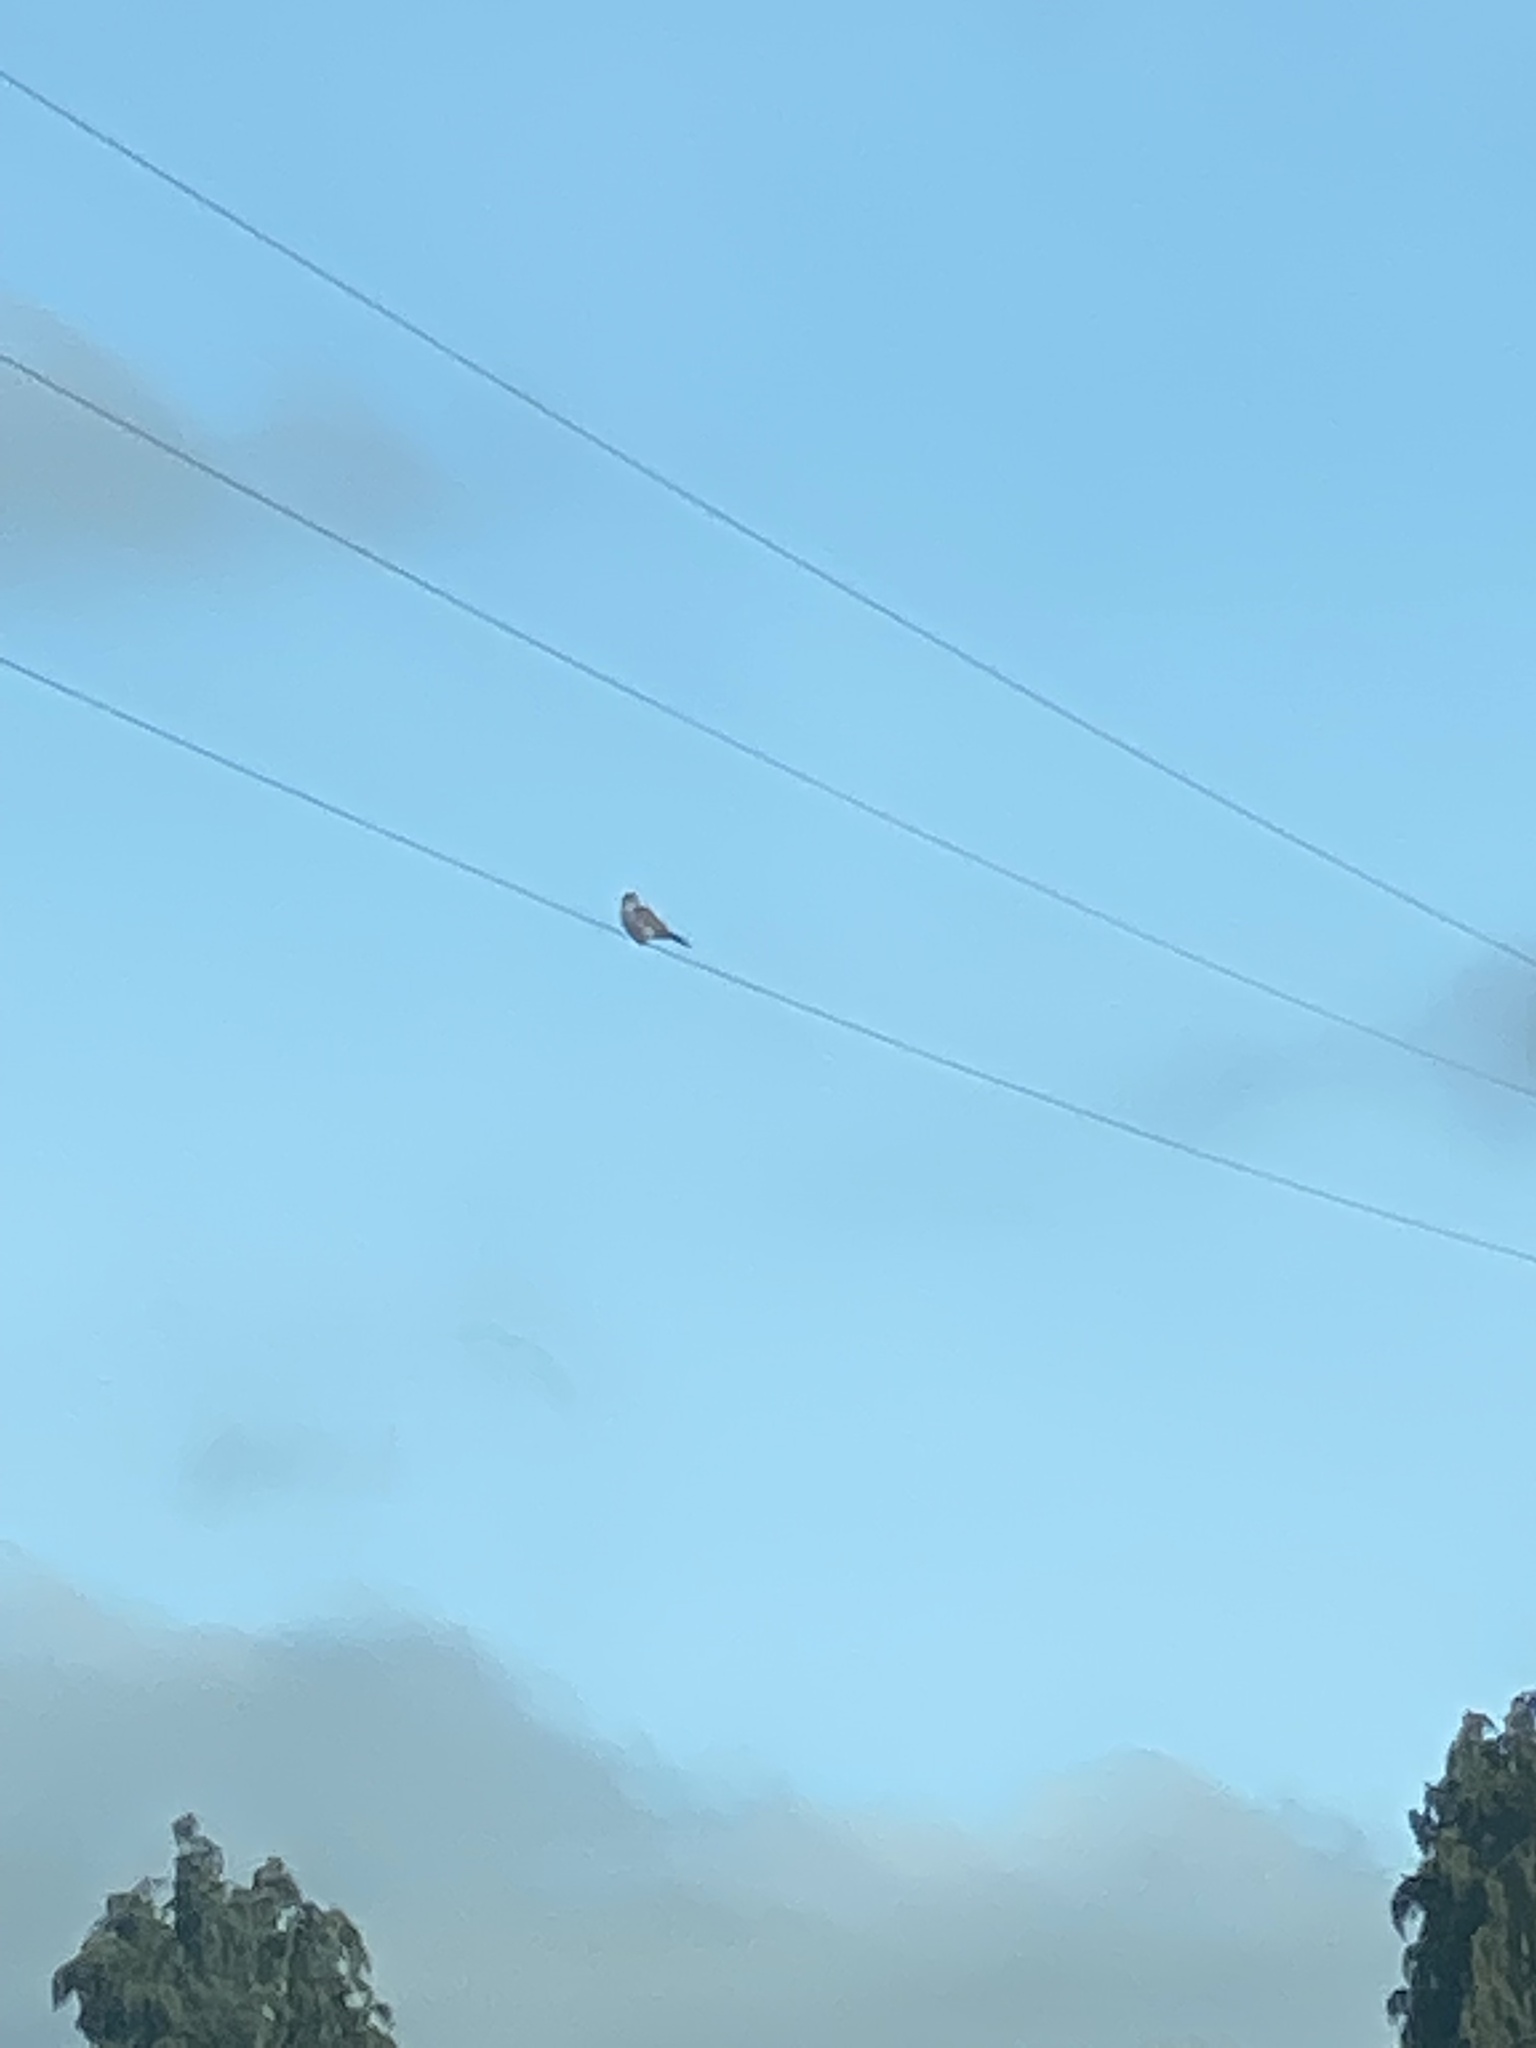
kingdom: Animalia
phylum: Chordata
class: Aves
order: Falconiformes
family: Falconidae
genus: Falco
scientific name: Falco sparverius
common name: American kestrel
